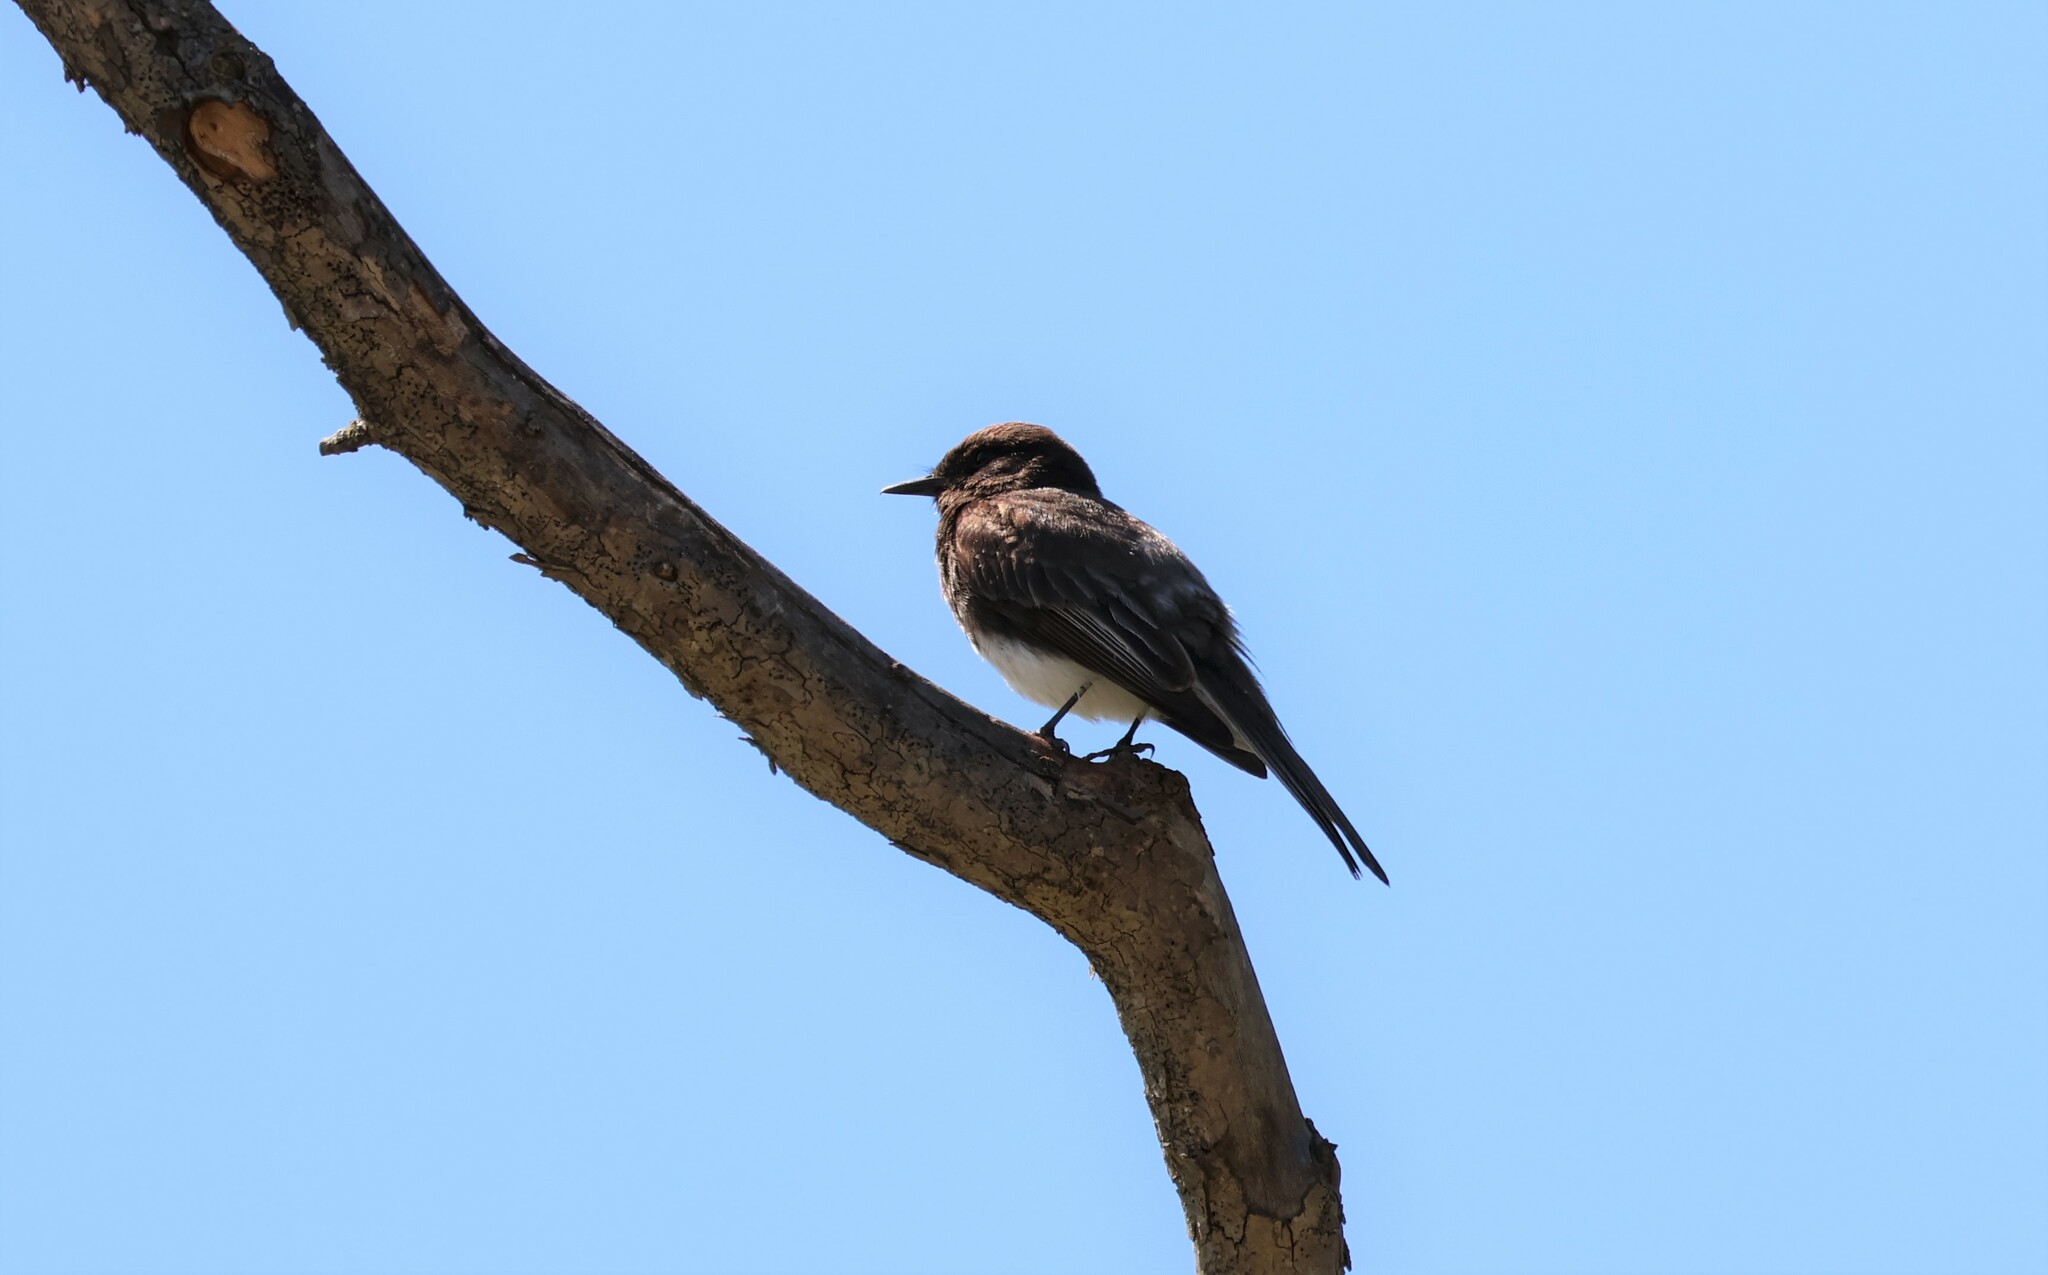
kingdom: Animalia
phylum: Chordata
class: Aves
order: Passeriformes
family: Tyrannidae
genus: Sayornis
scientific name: Sayornis nigricans
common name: Black phoebe
